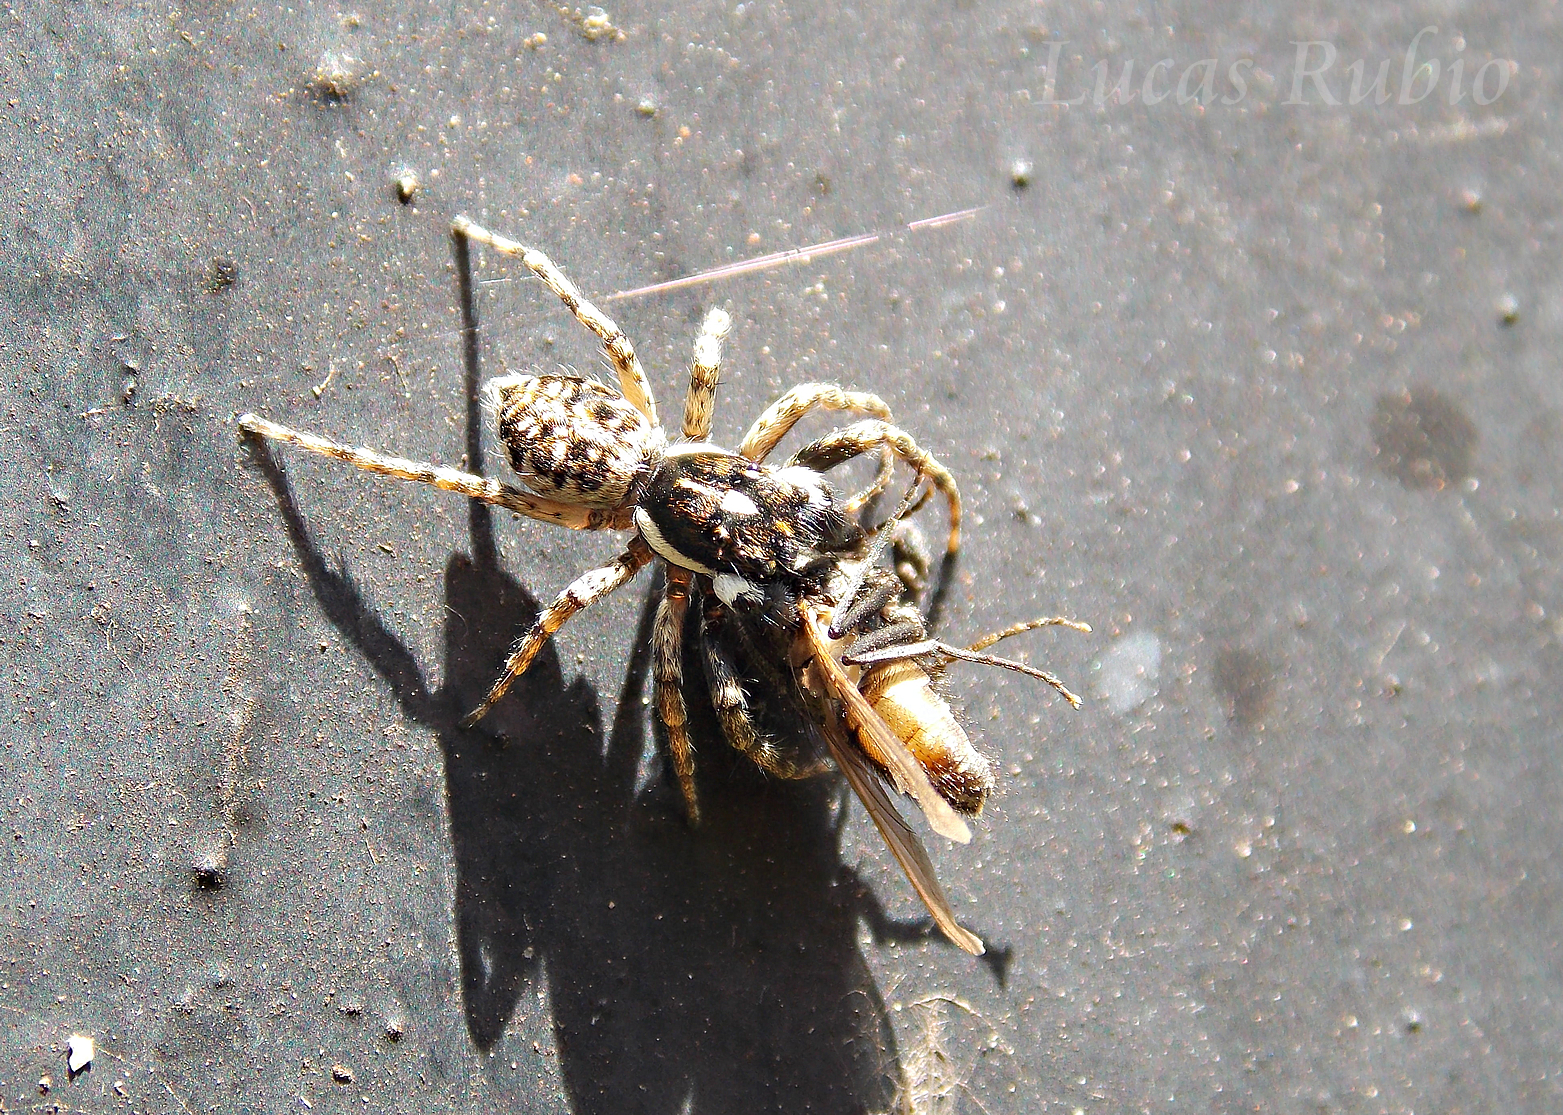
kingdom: Animalia
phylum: Arthropoda
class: Arachnida
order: Araneae
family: Salticidae
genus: Menemerus
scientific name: Menemerus semilimbatus
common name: Jumping spider
